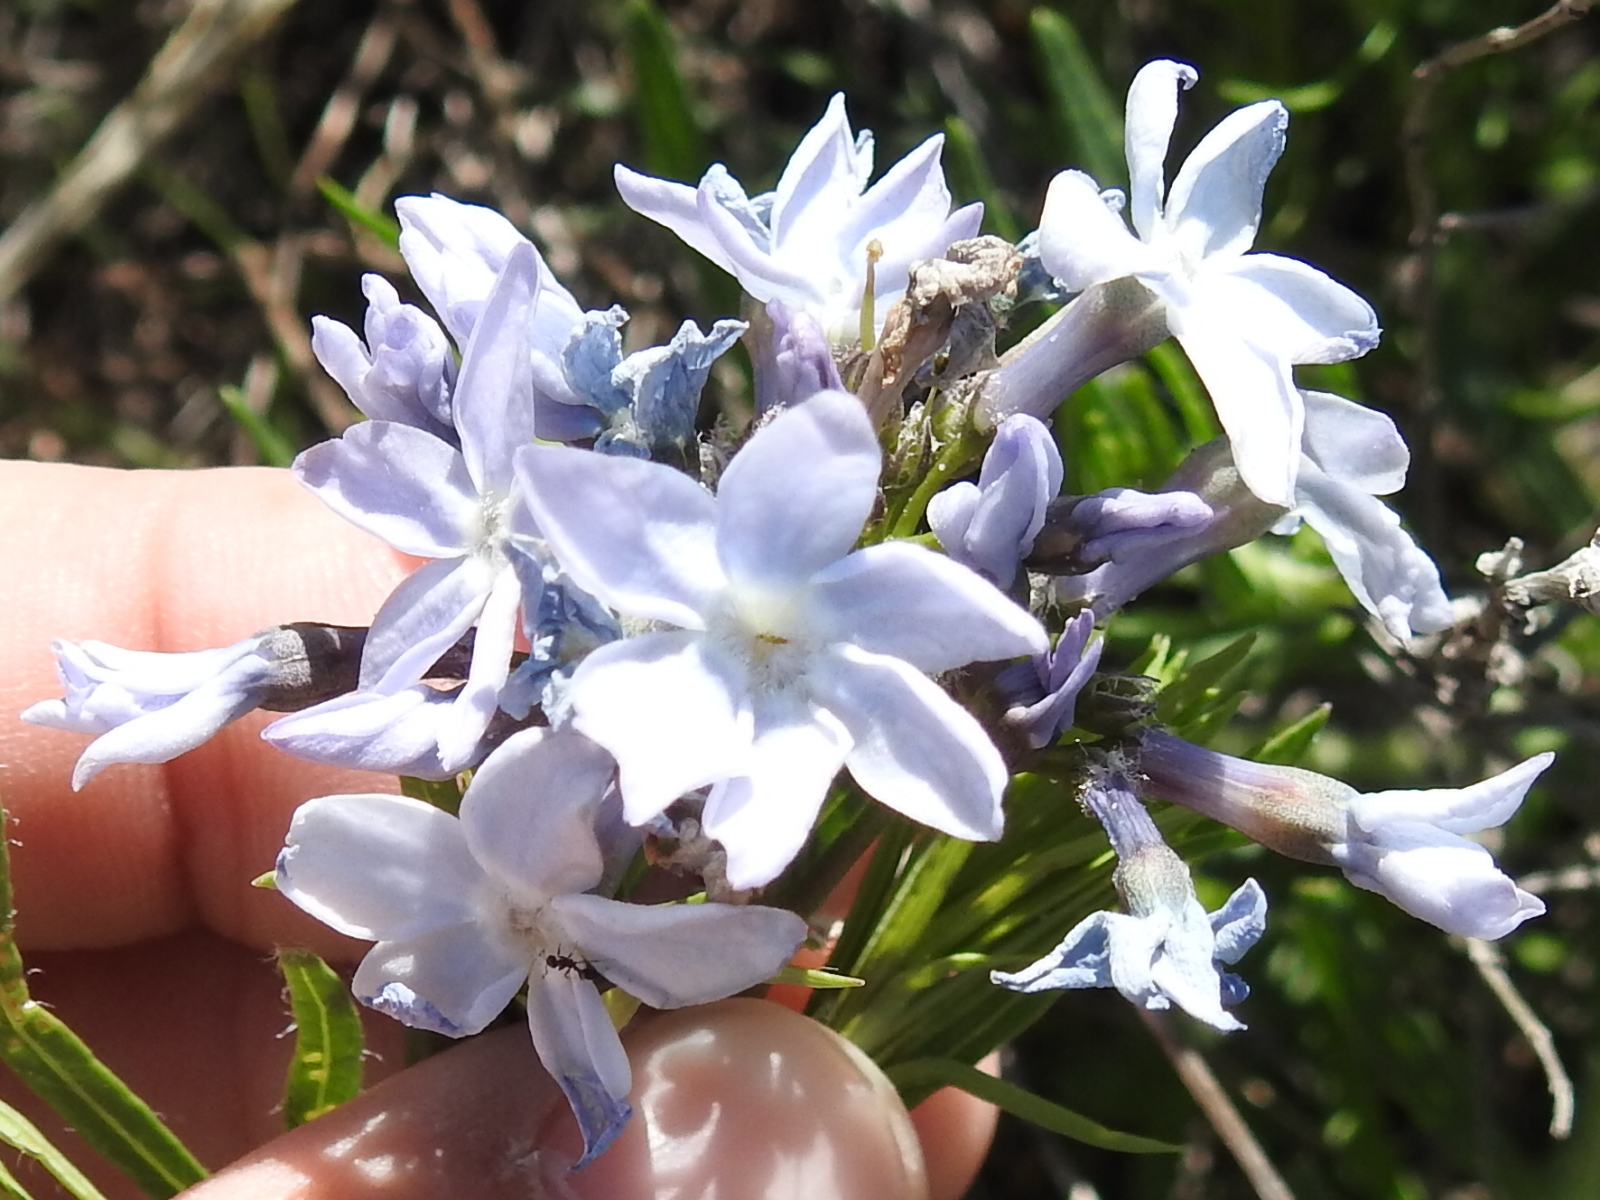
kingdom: Plantae
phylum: Tracheophyta
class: Magnoliopsida
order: Gentianales
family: Apocynaceae
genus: Amsonia
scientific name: Amsonia ciliata
